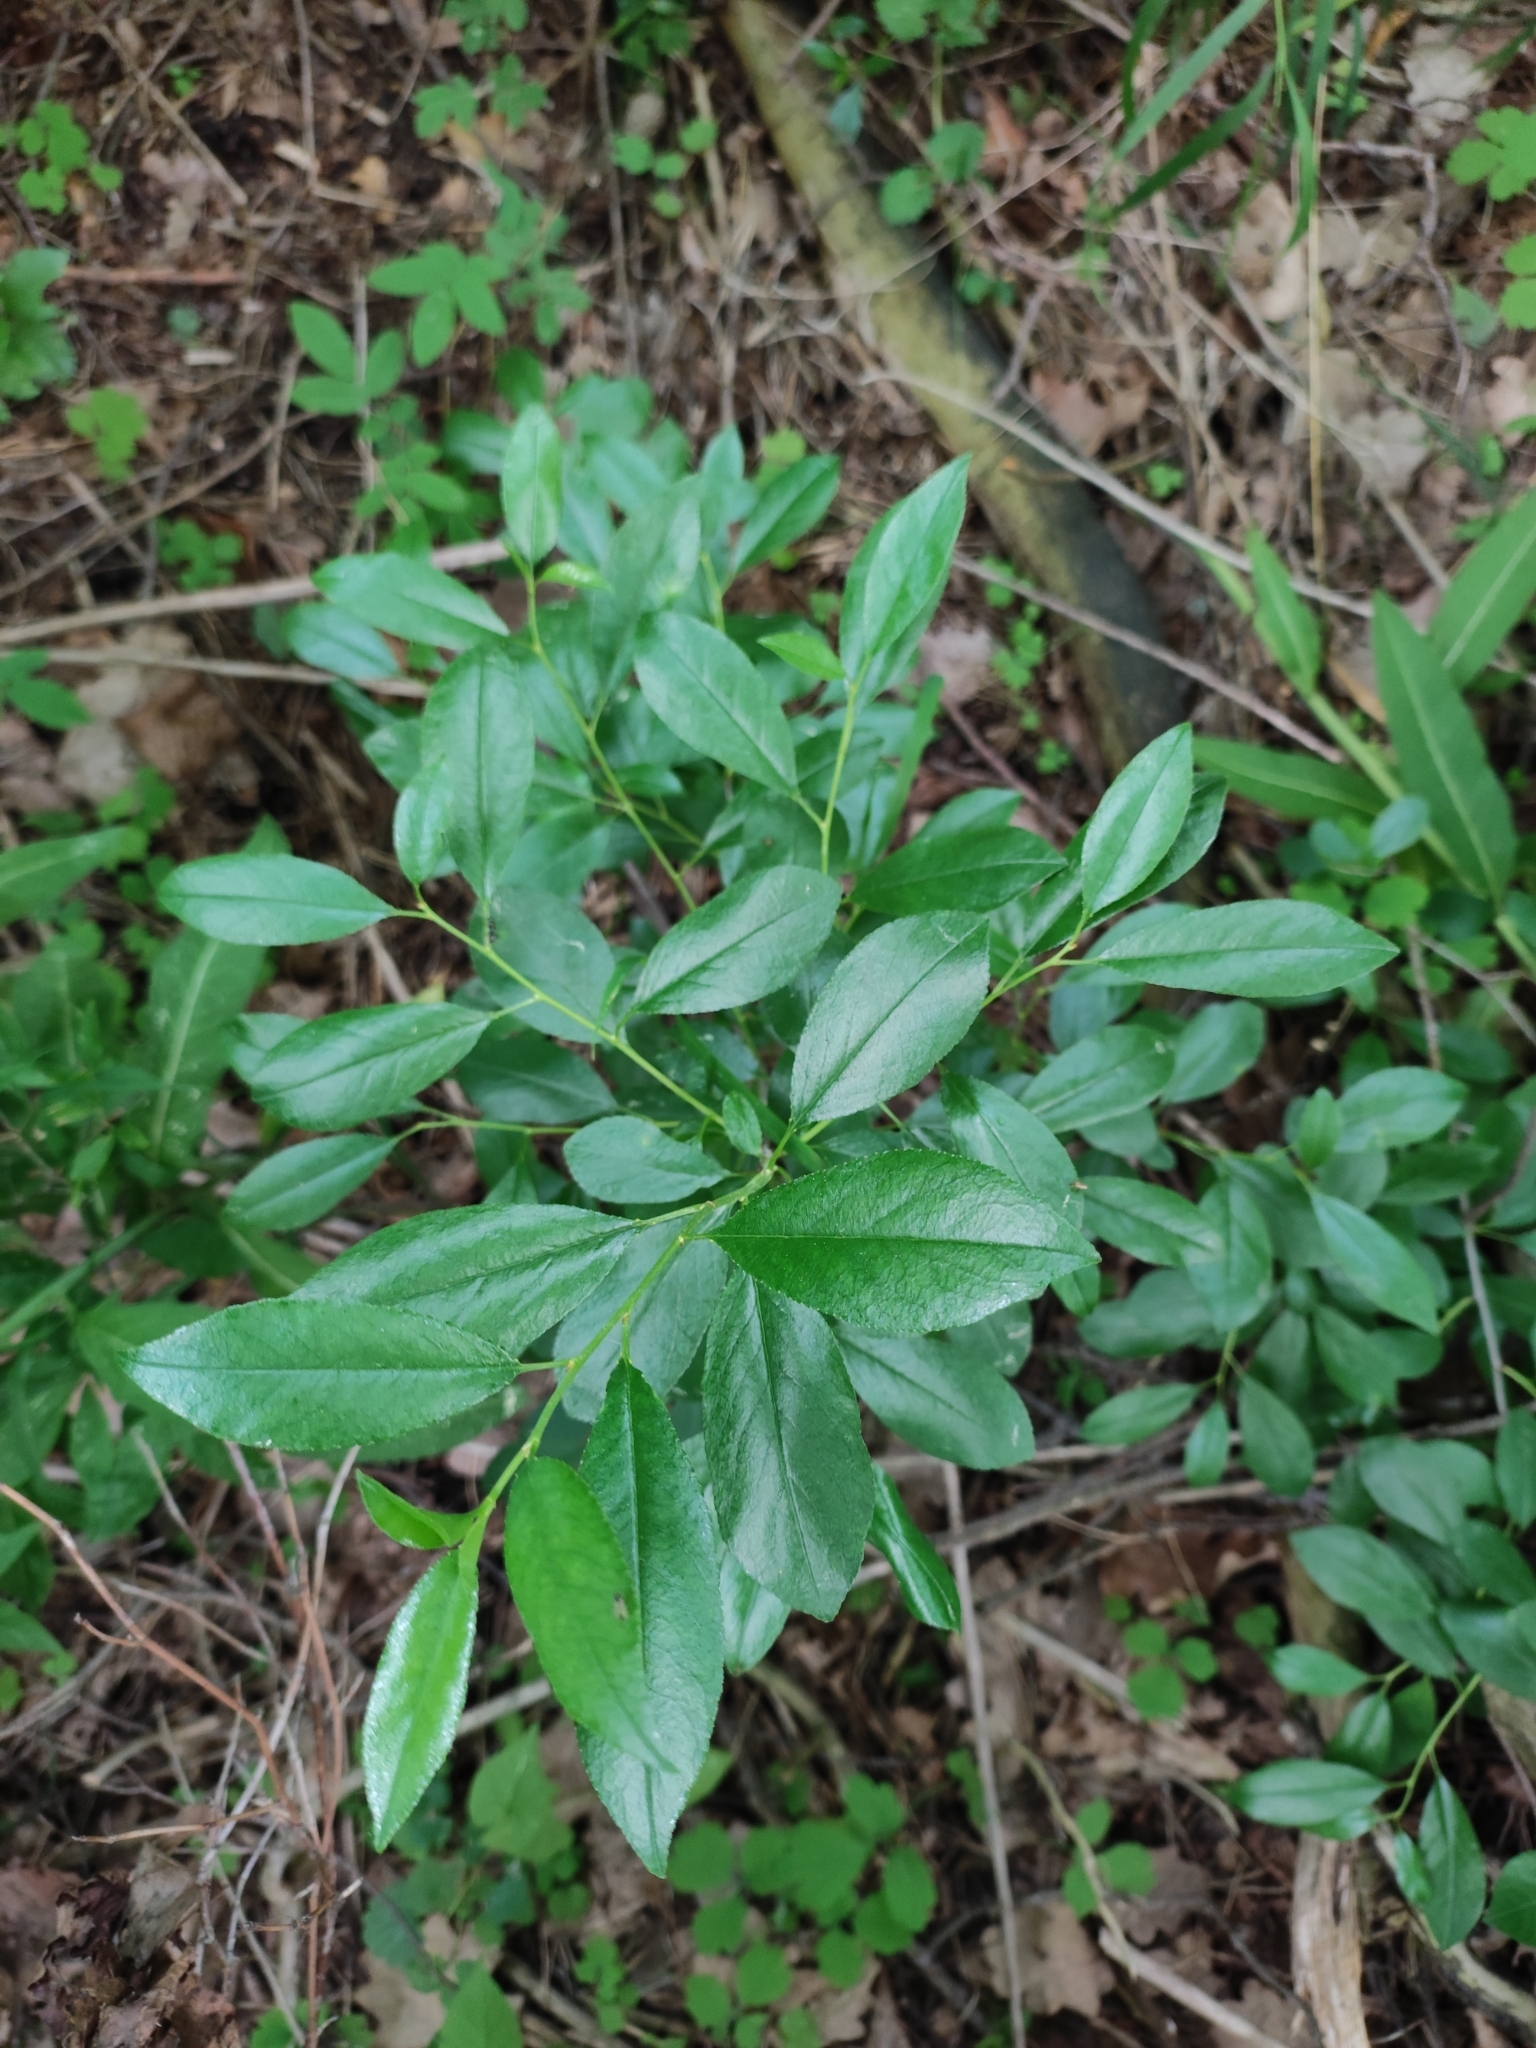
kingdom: Plantae
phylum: Tracheophyta
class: Magnoliopsida
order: Rosales
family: Rosaceae
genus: Prunus
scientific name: Prunus fruticosa
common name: European dwarf cherry
